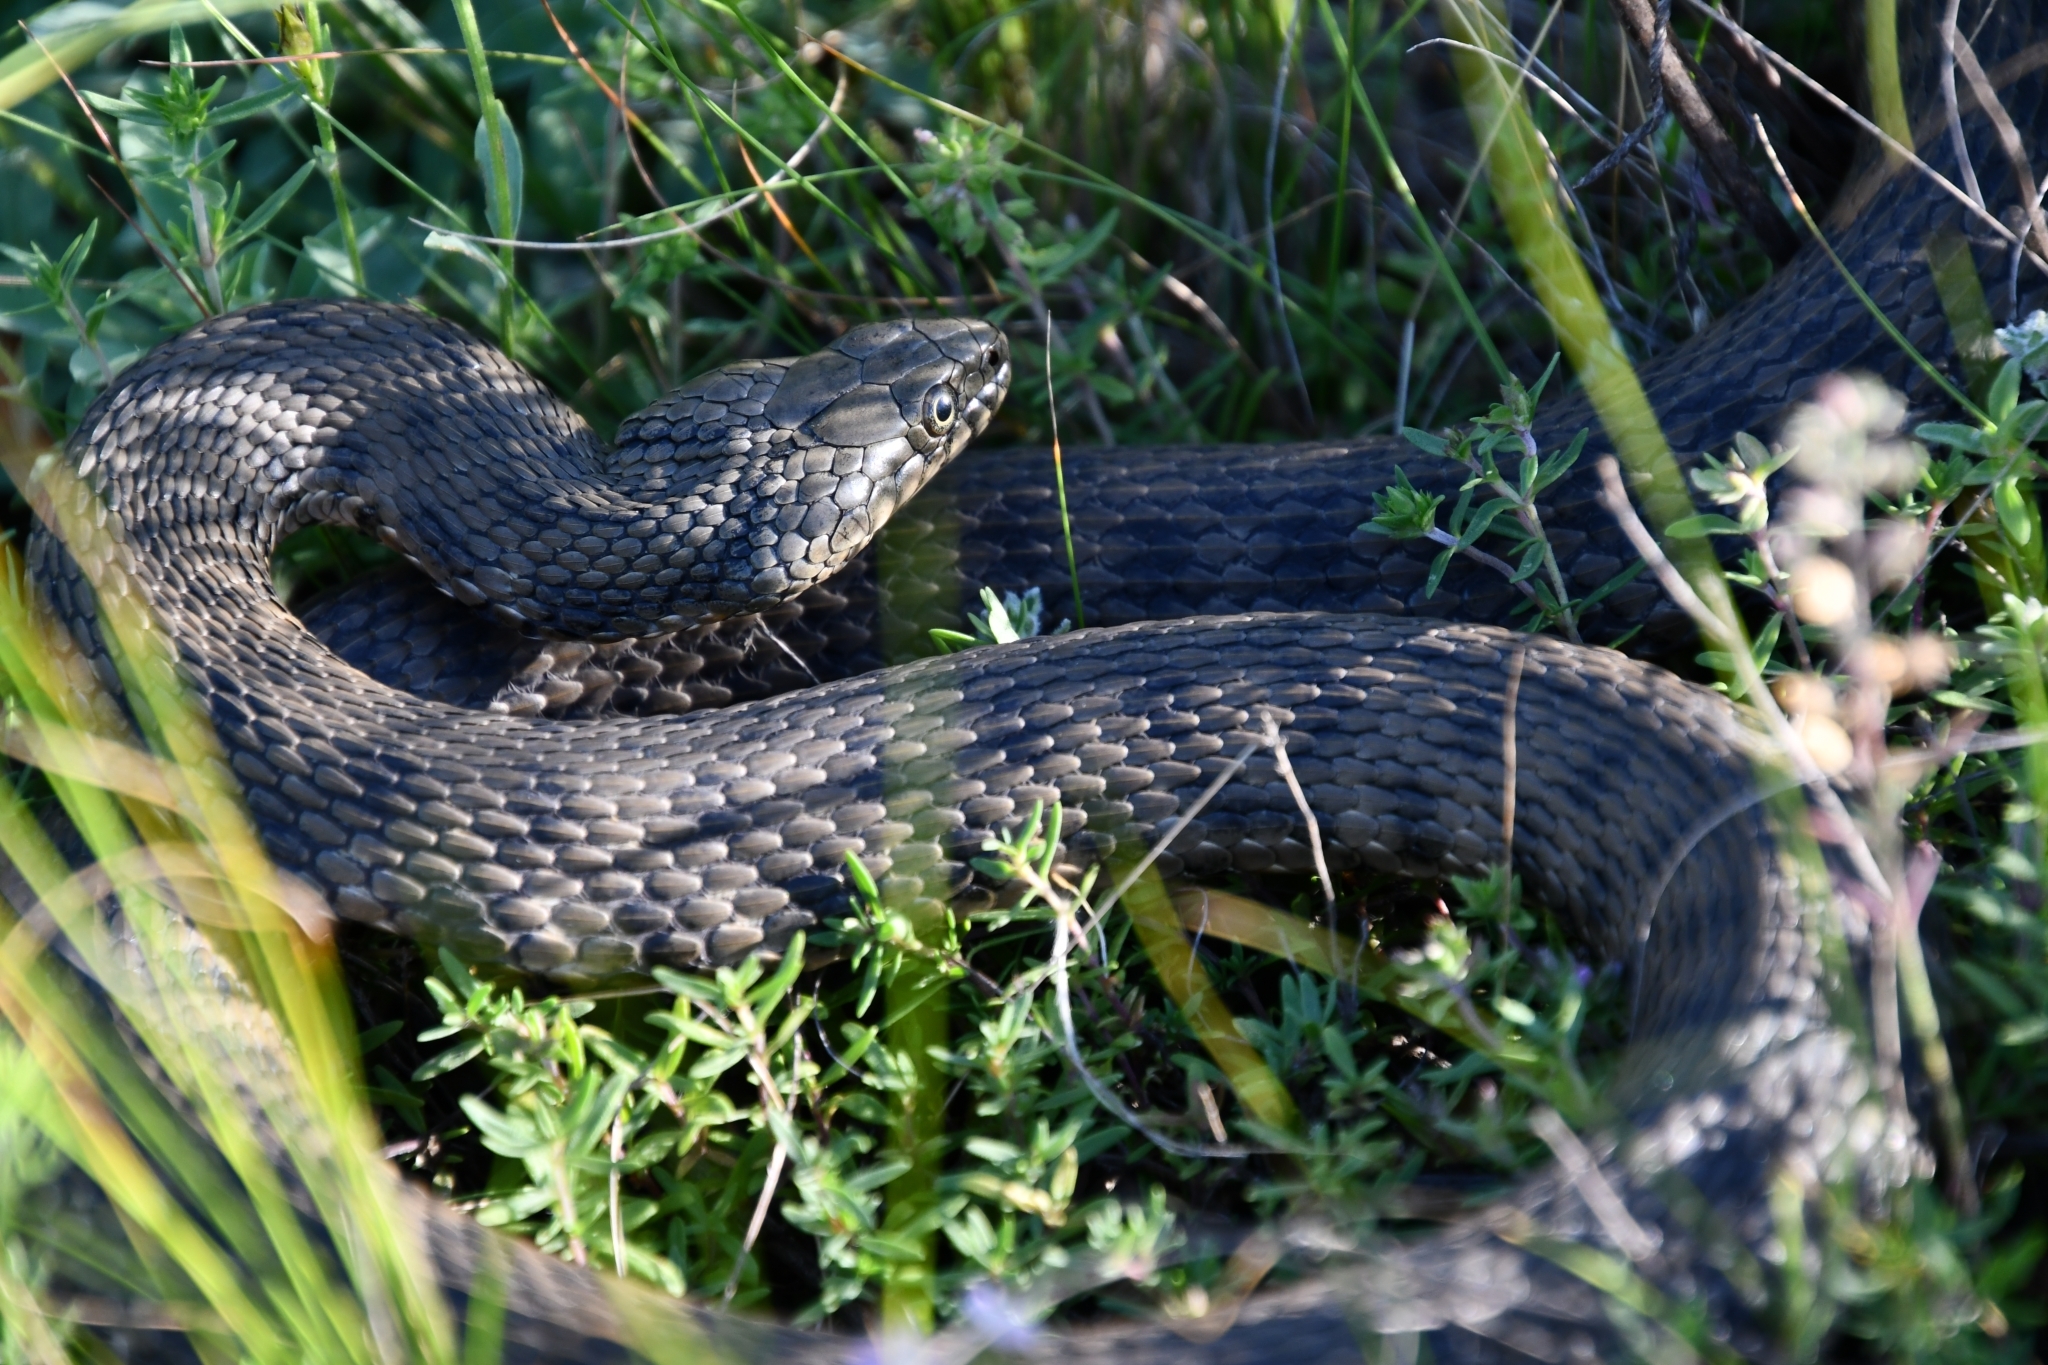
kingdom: Animalia
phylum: Chordata
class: Squamata
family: Colubridae
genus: Natrix
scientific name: Natrix tessellata
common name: Dice snake
